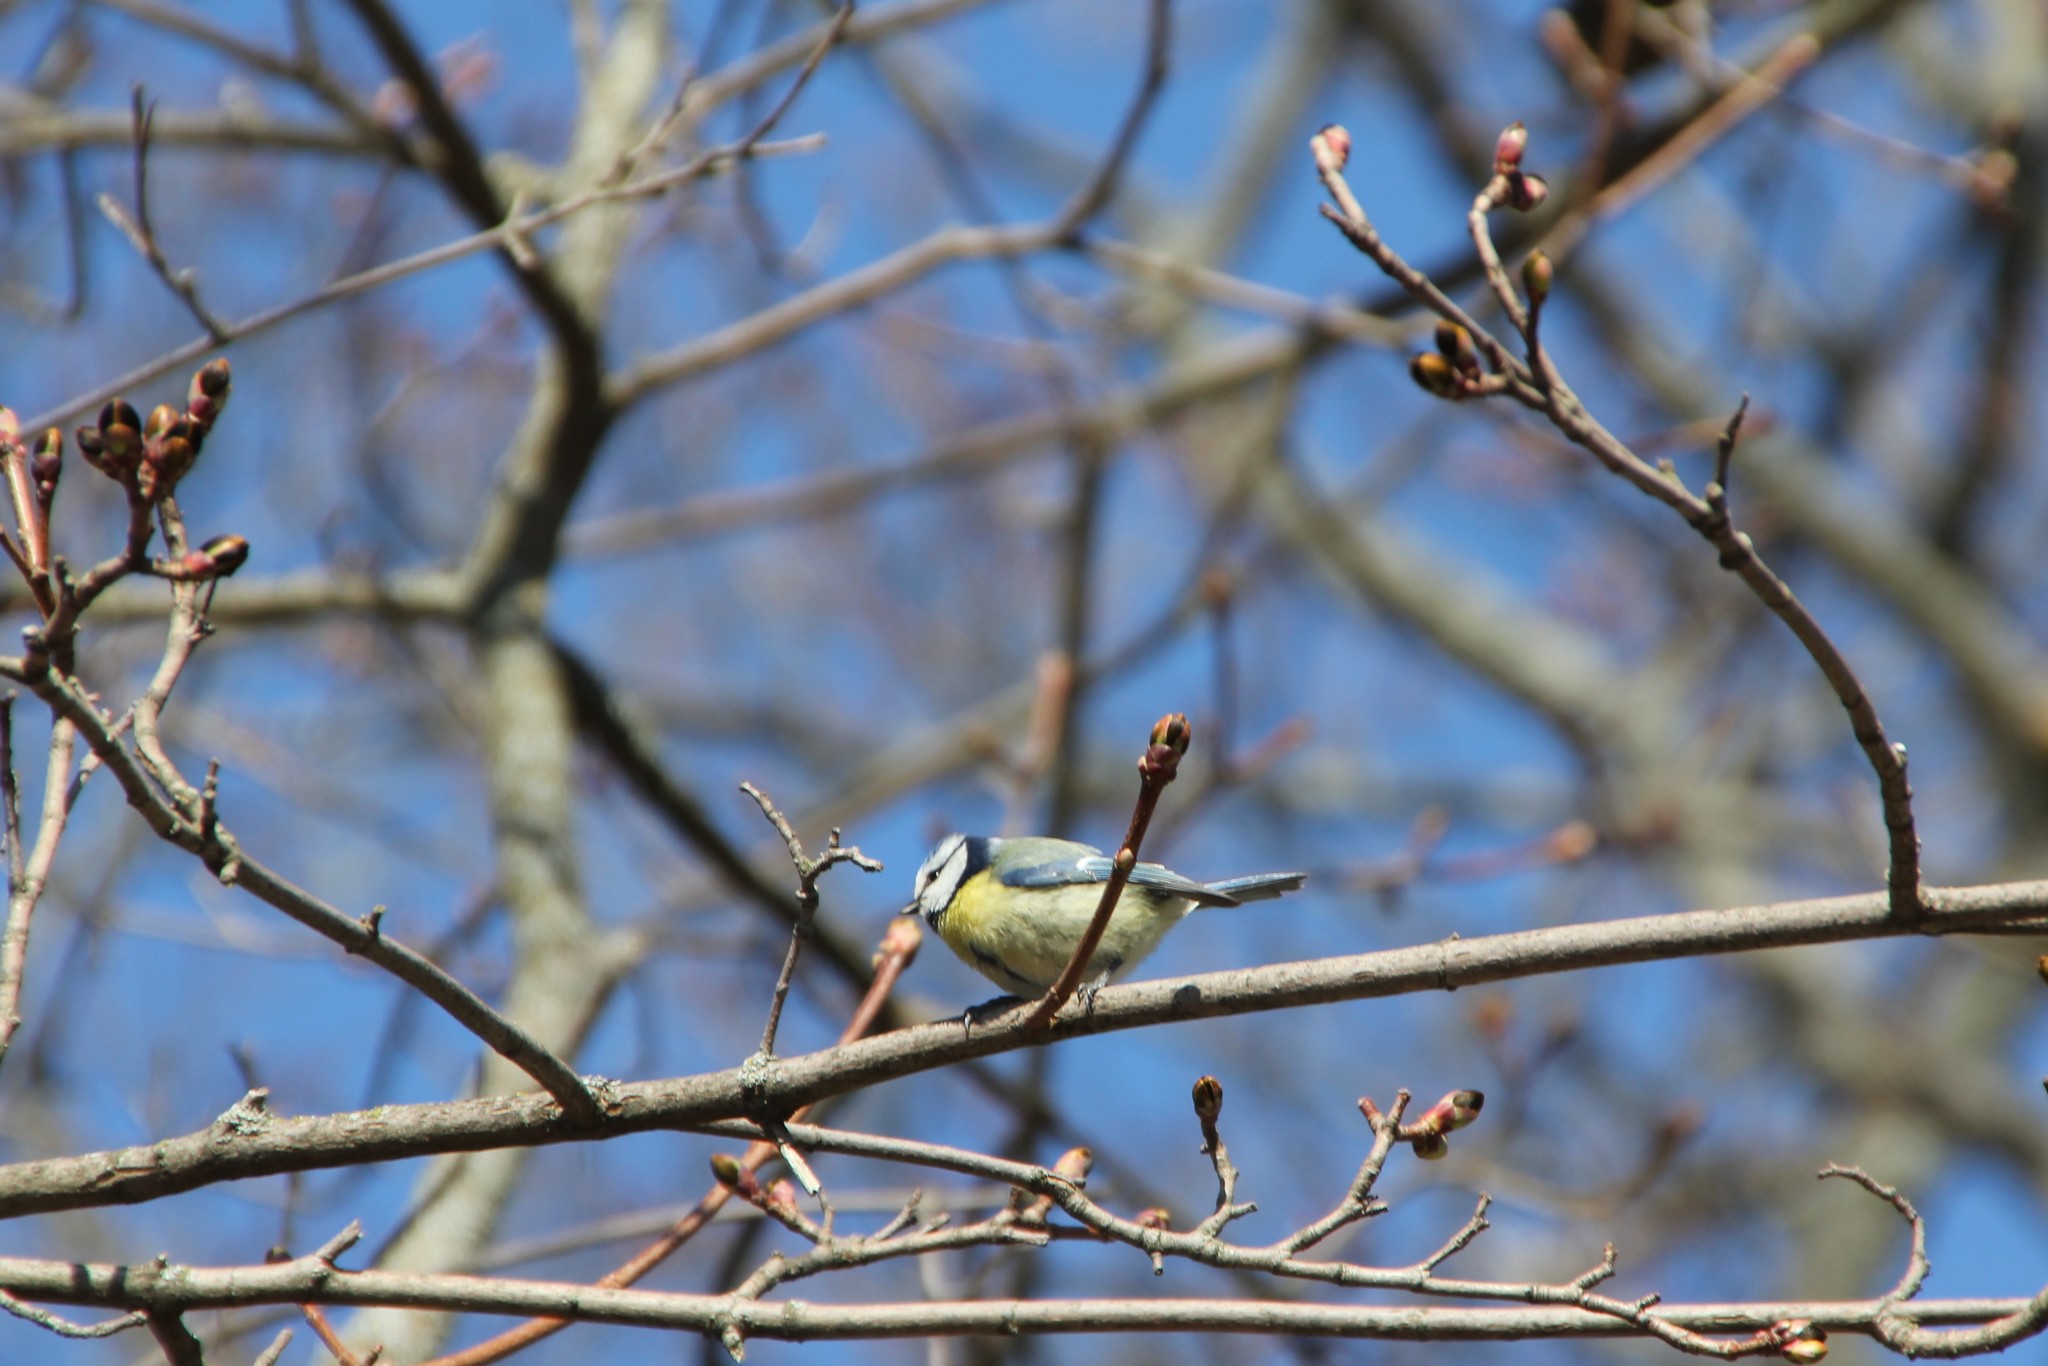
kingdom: Animalia
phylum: Chordata
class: Aves
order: Passeriformes
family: Paridae
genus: Cyanistes
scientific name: Cyanistes caeruleus
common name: Eurasian blue tit
